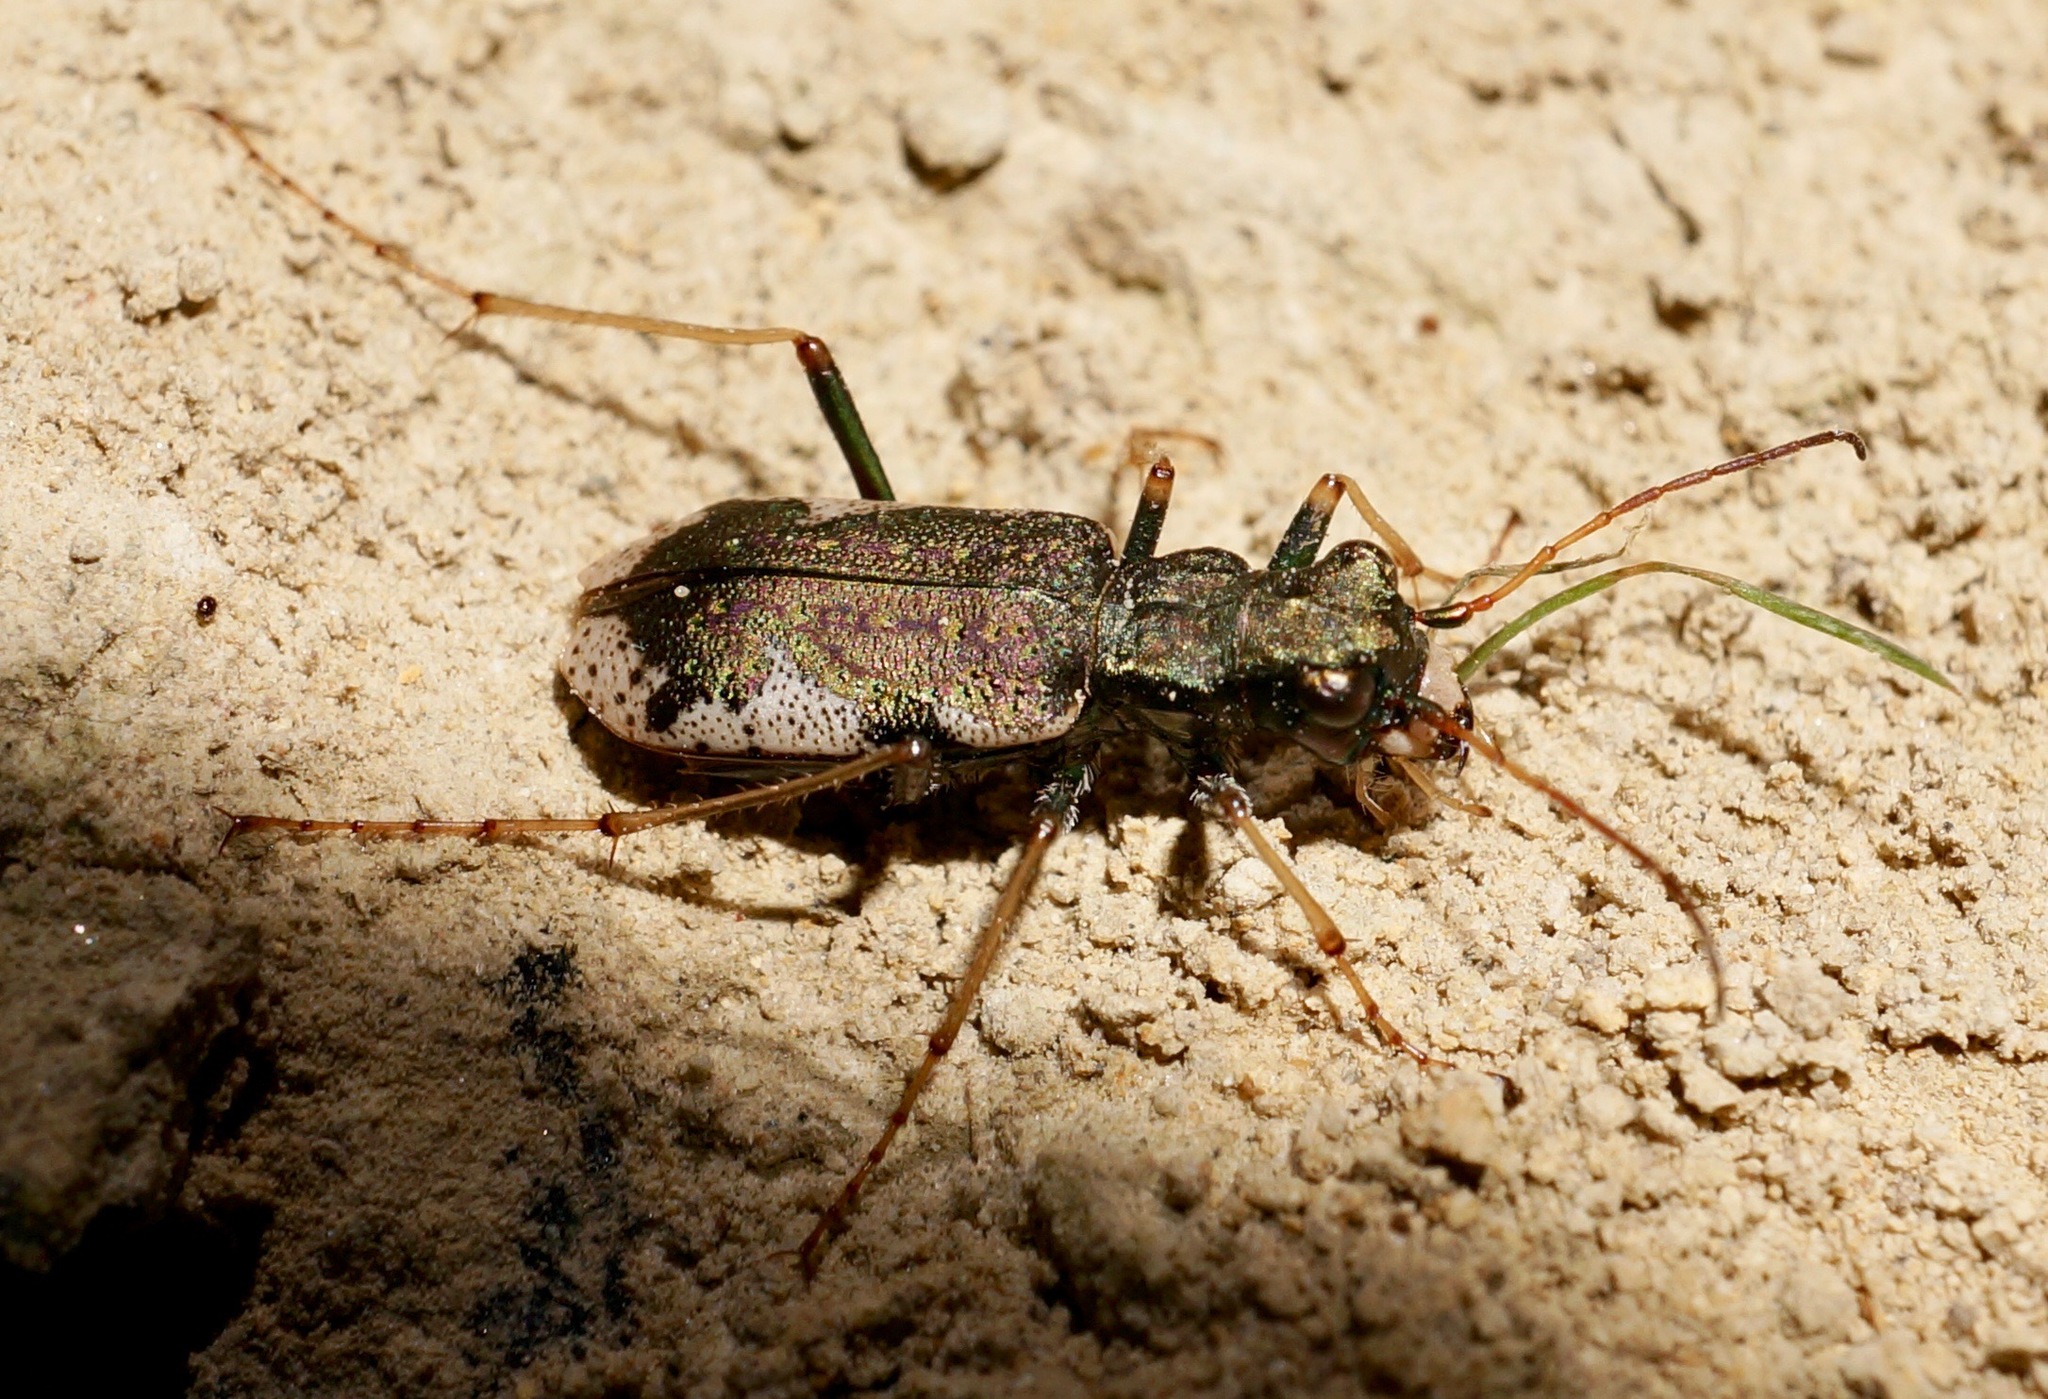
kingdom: Animalia
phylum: Arthropoda
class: Insecta
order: Coleoptera
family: Carabidae
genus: Neocicindela
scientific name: Neocicindela parryi
